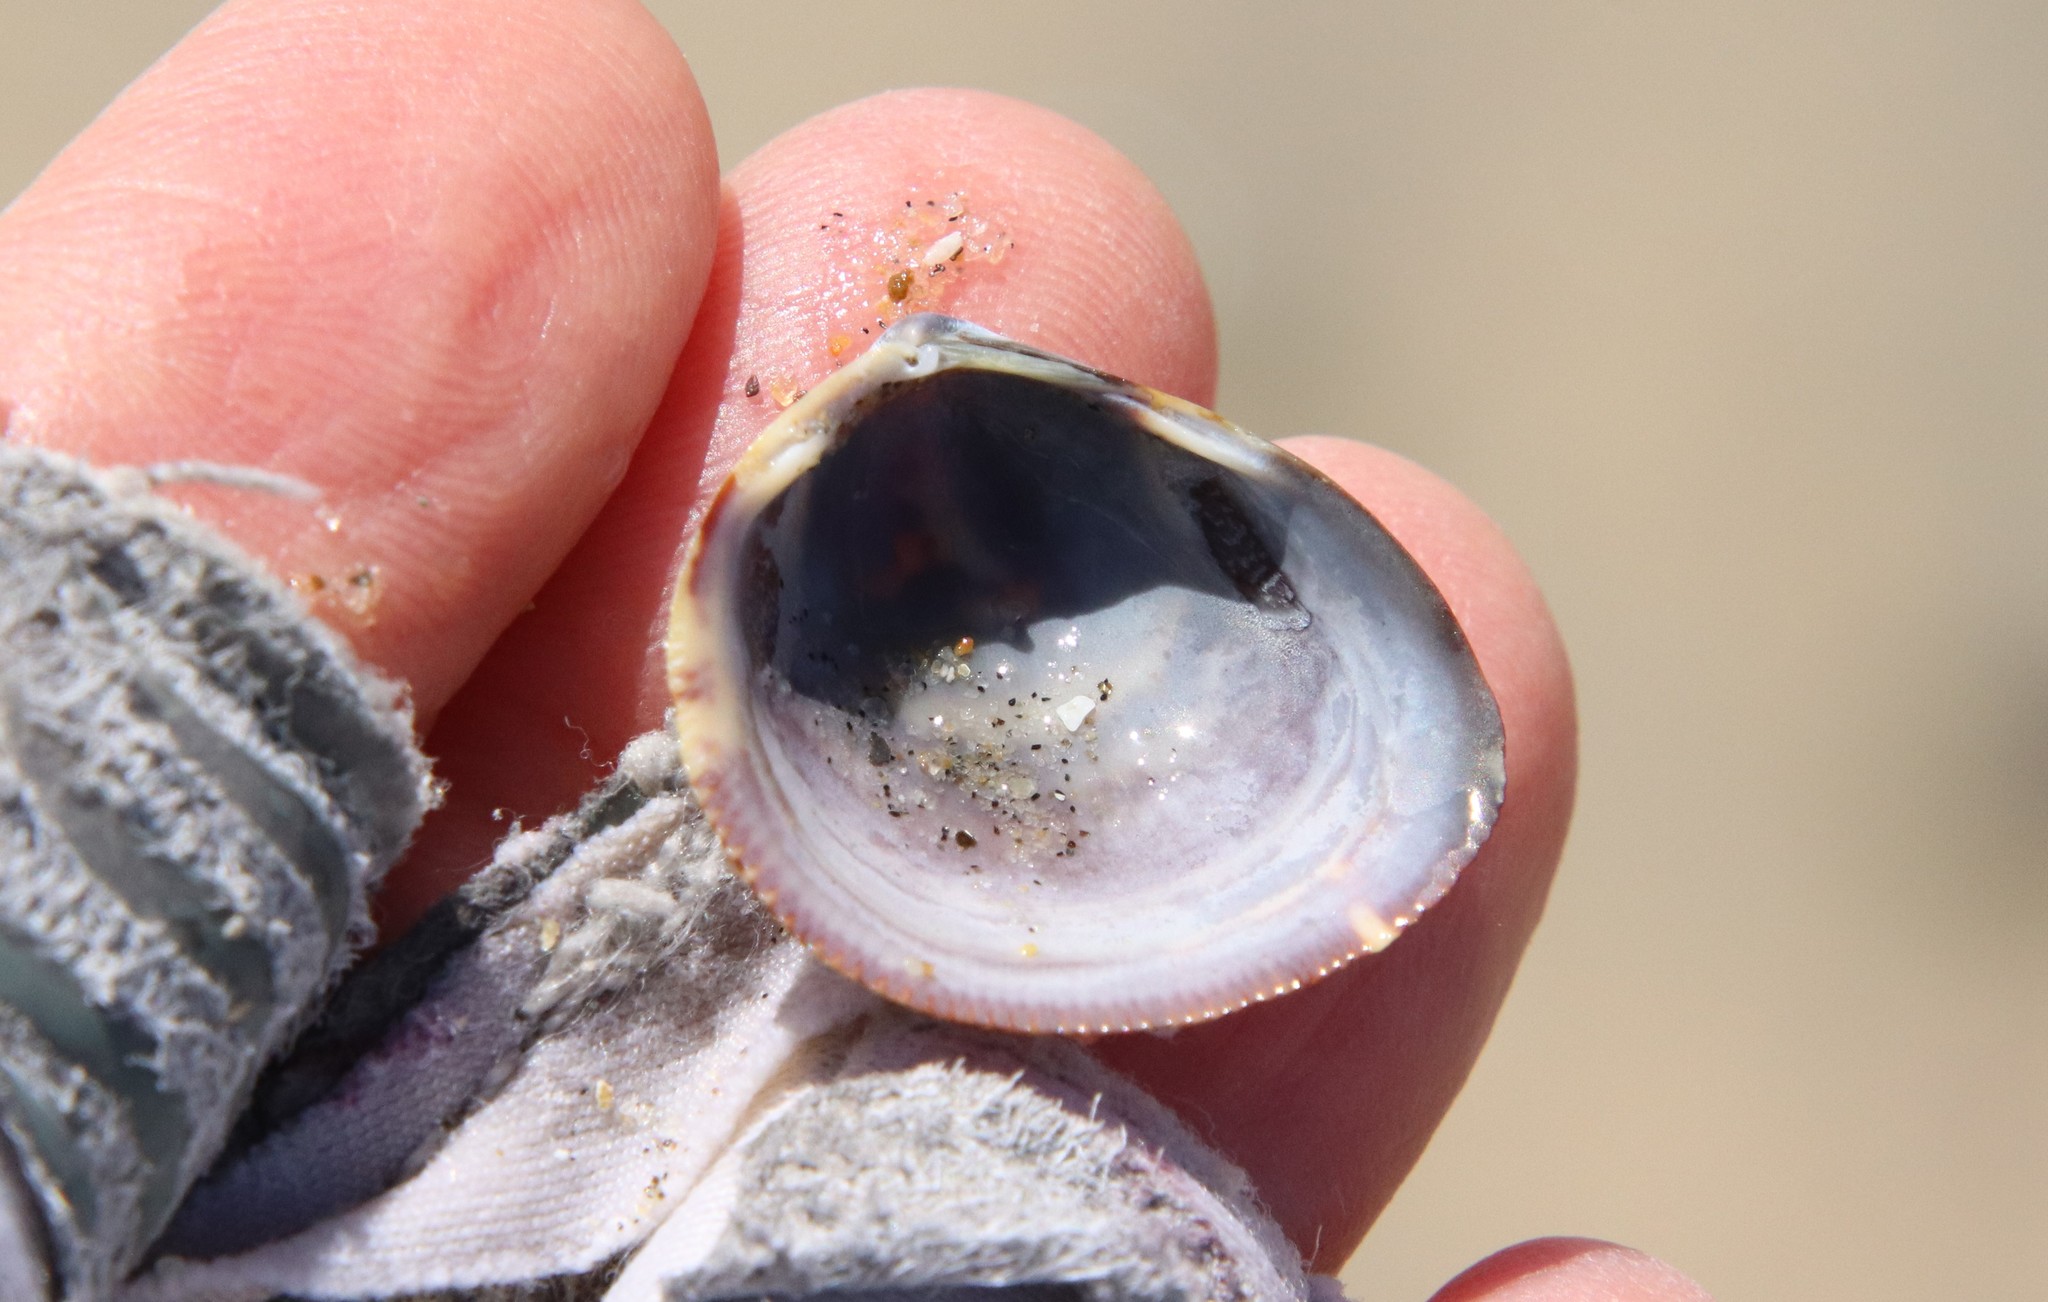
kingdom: Animalia
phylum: Mollusca
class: Bivalvia
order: Cardiida
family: Cardiidae
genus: Laevicardium
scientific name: Laevicardium substriatum
